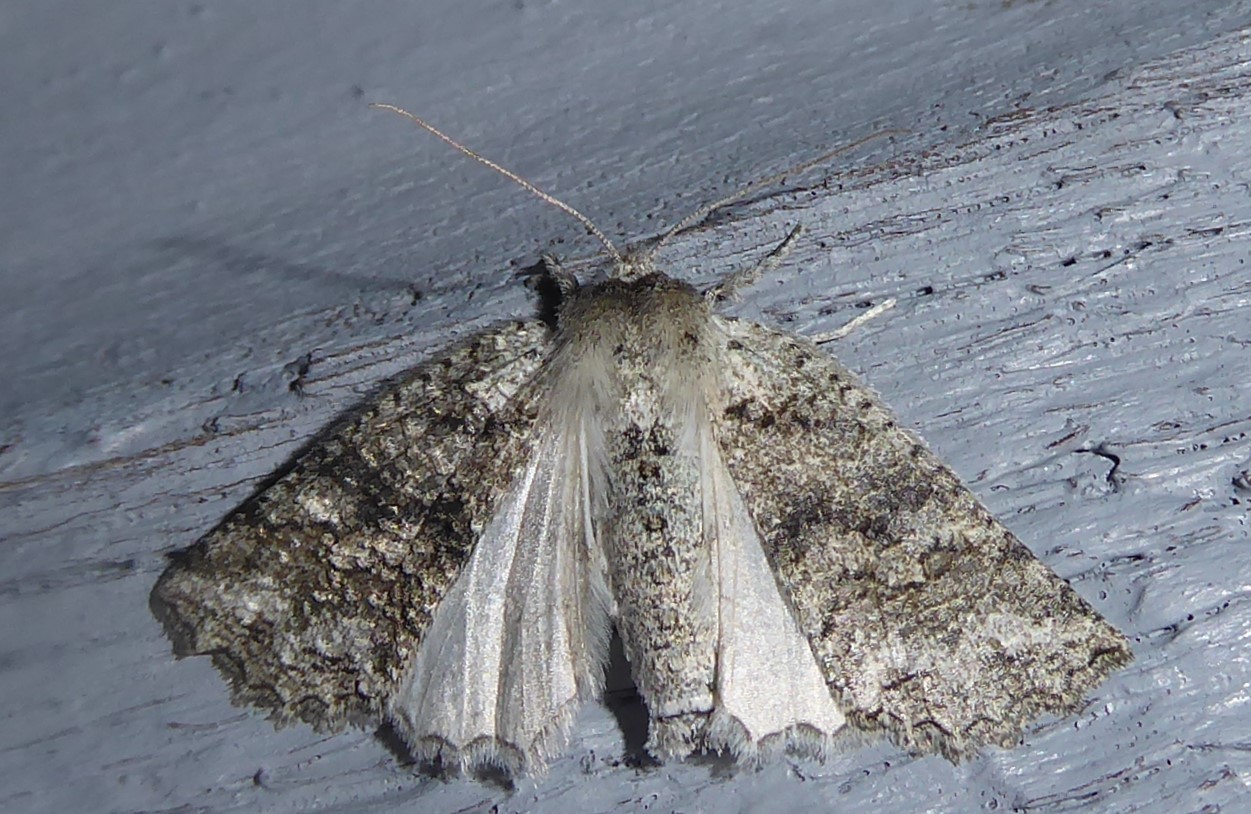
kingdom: Animalia
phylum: Arthropoda
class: Insecta
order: Lepidoptera
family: Geometridae
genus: Declana
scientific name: Declana niveata
